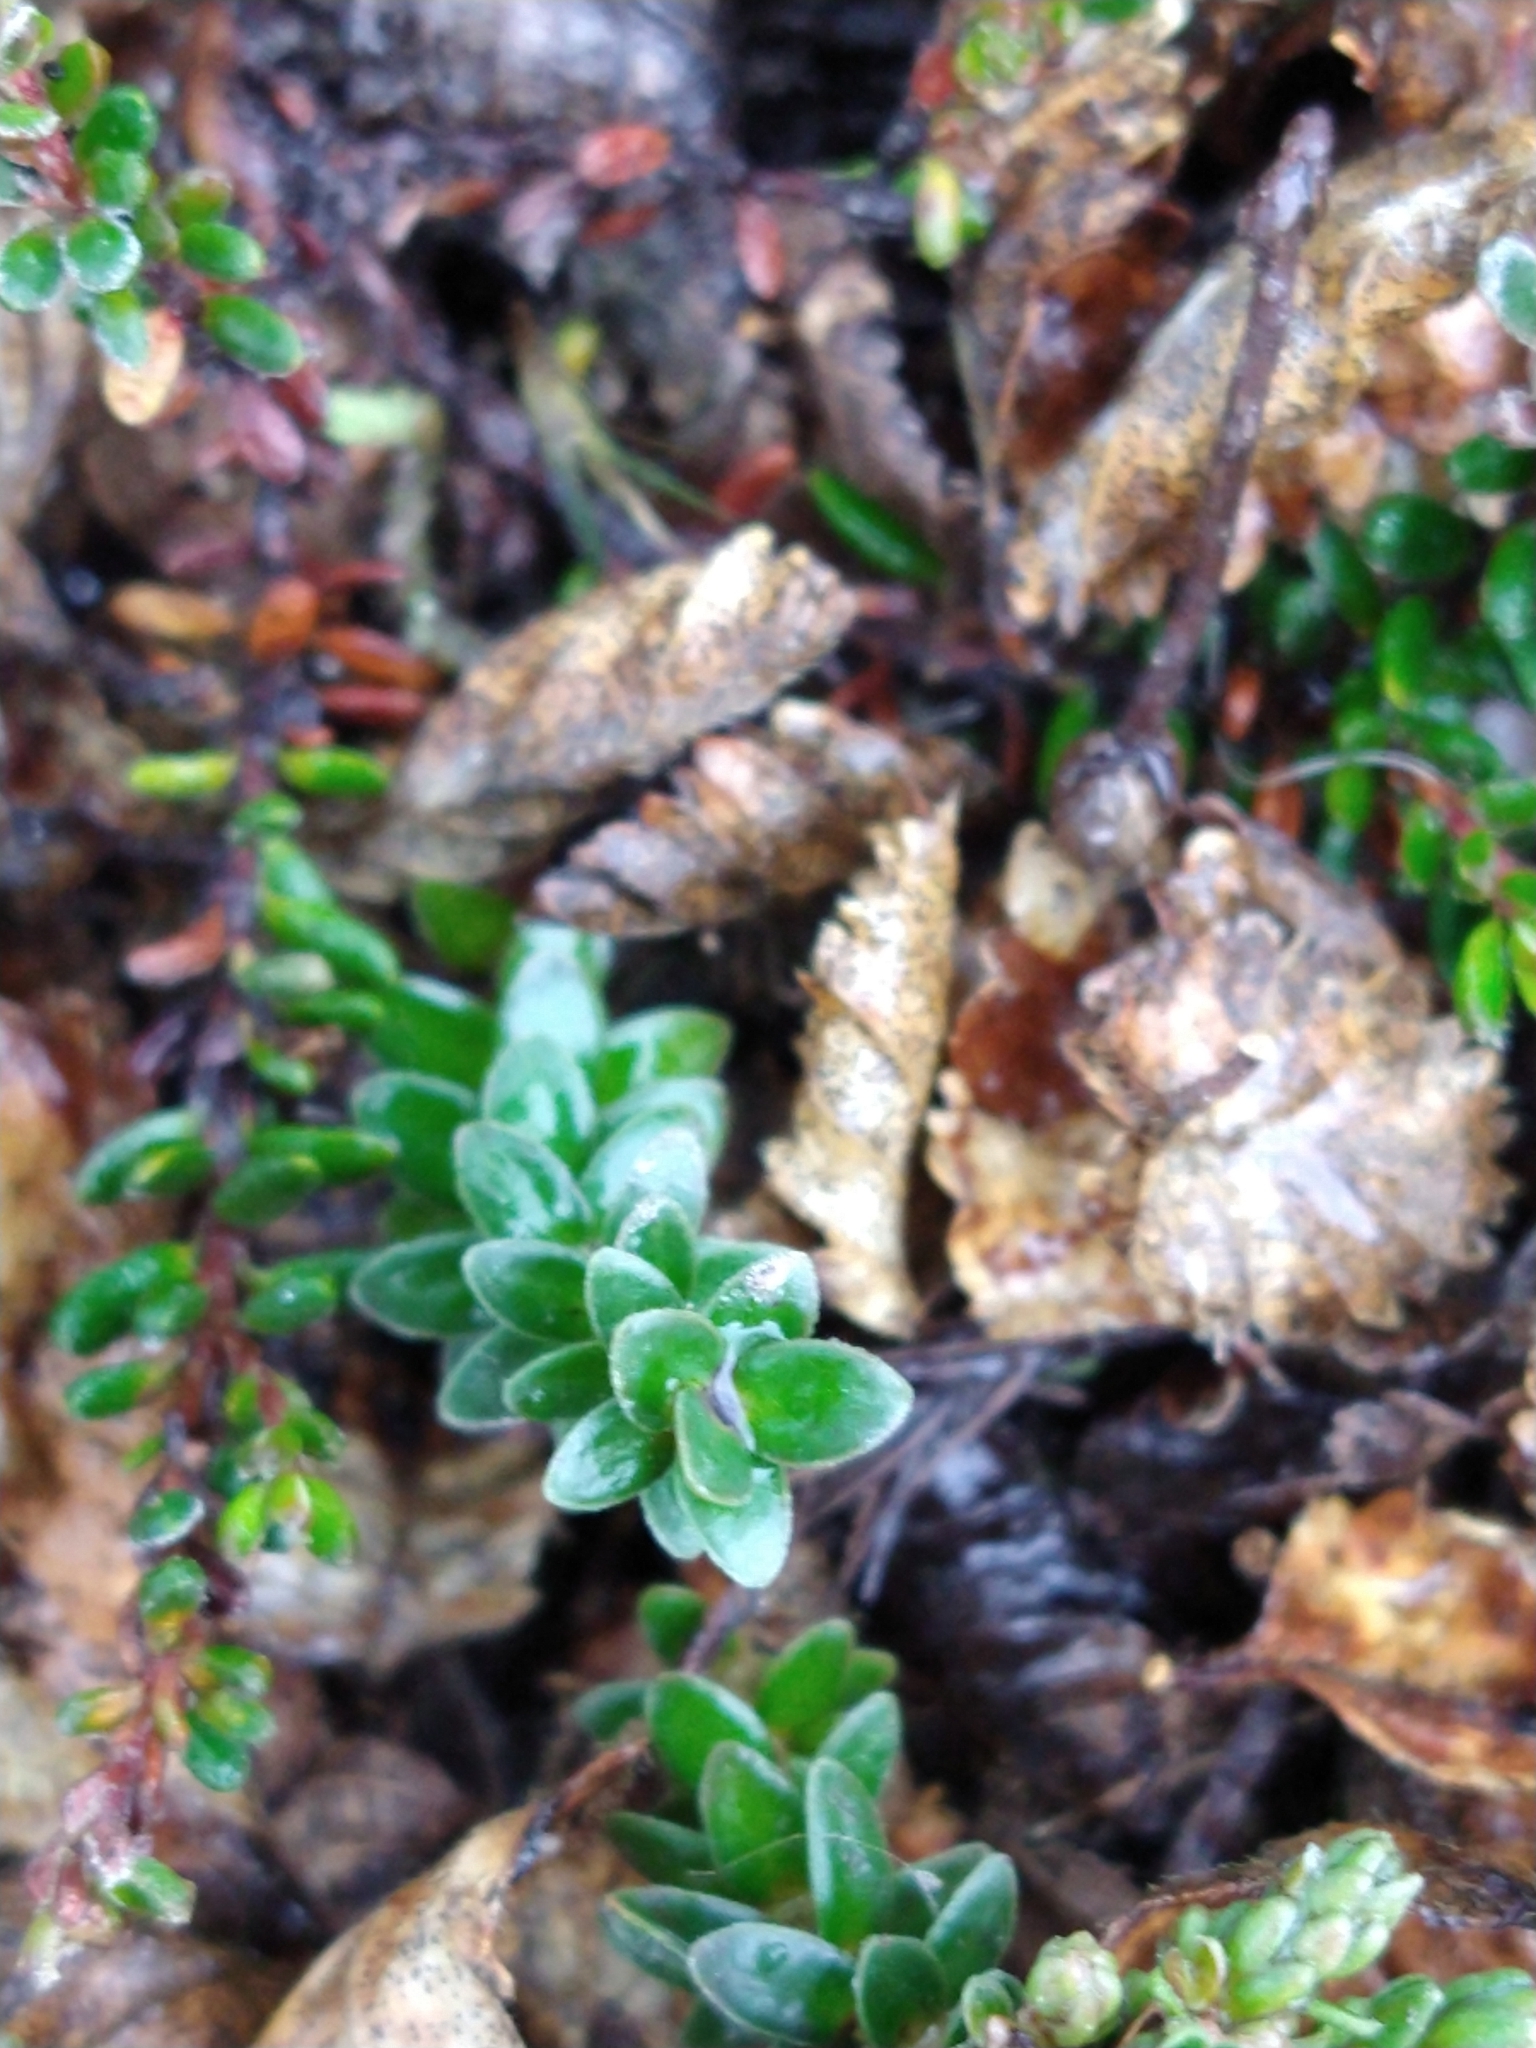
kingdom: Plantae
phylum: Tracheophyta
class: Magnoliopsida
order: Ericales
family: Ericaceae
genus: Gaultheria
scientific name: Gaultheria pumila
